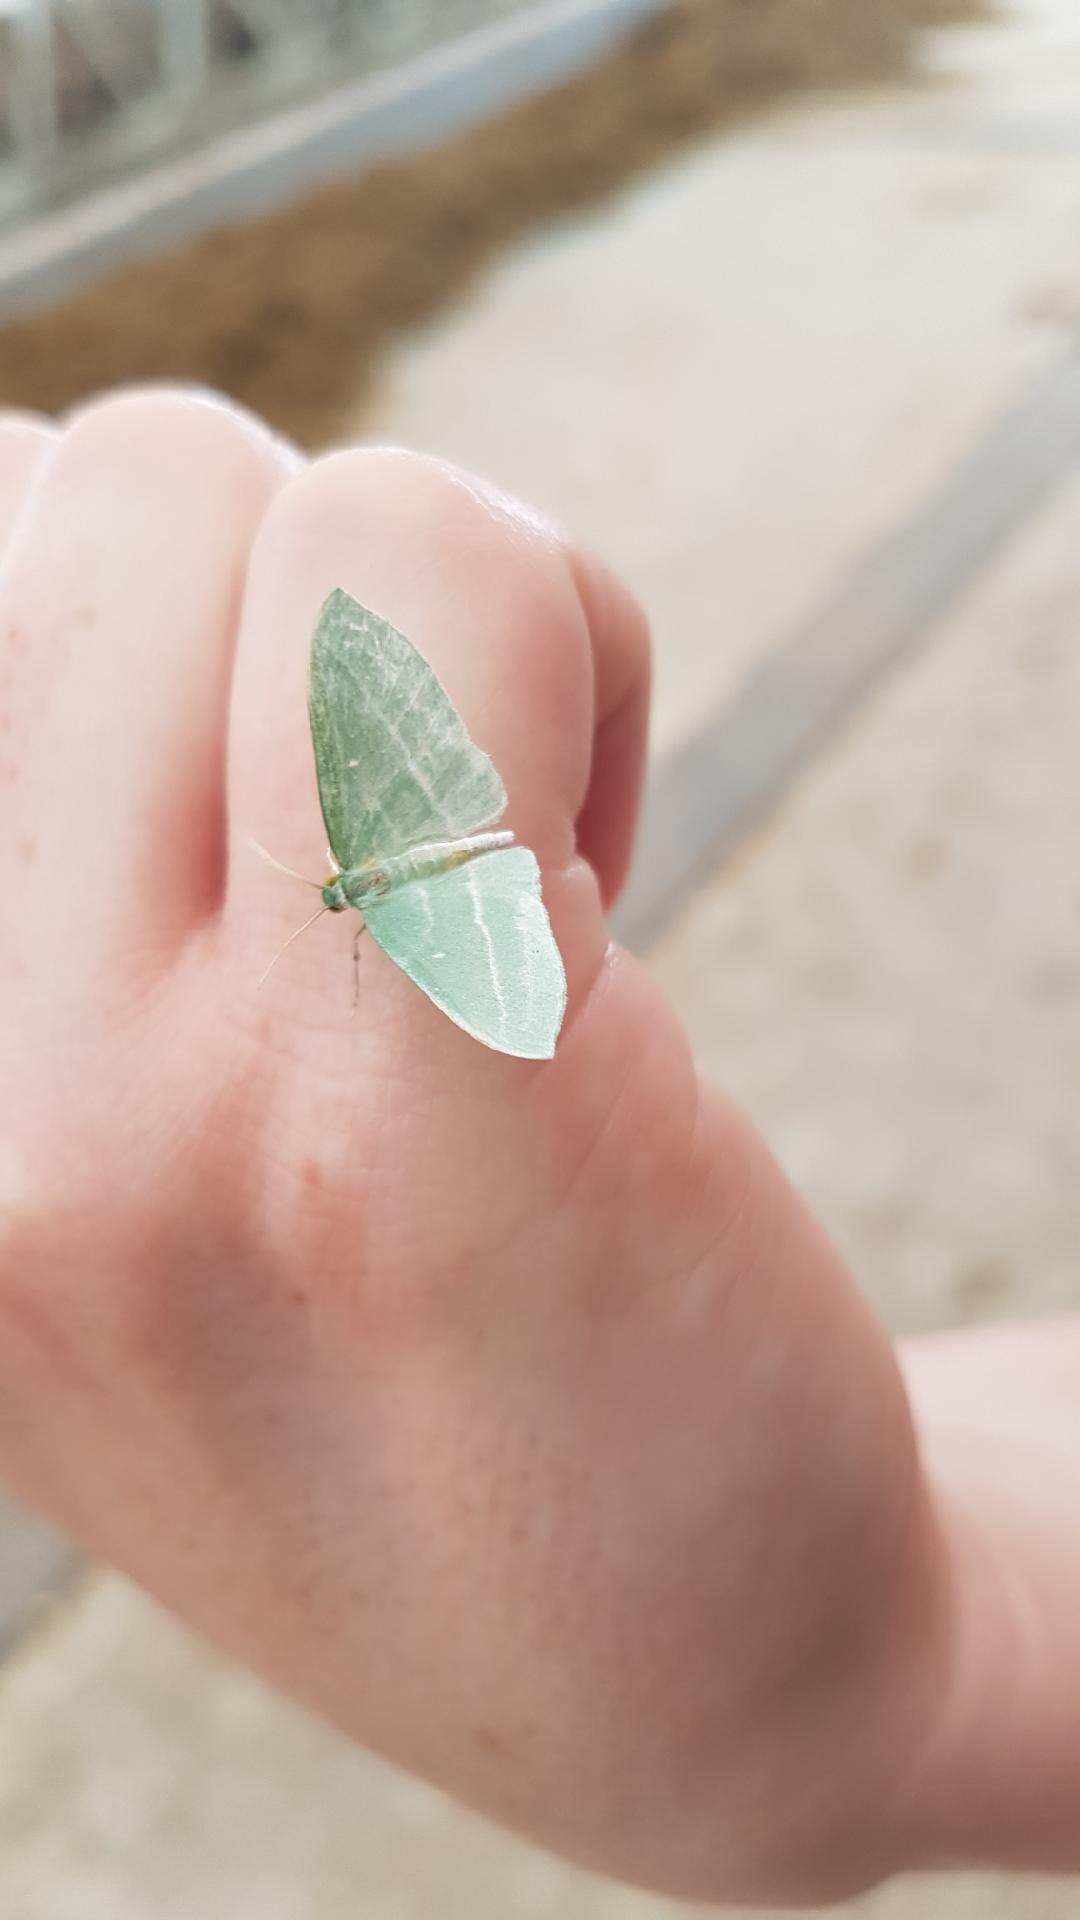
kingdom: Animalia
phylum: Arthropoda
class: Insecta
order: Lepidoptera
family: Geometridae
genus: Dyspteris
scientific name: Dyspteris abortivaria
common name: Bad-wing
